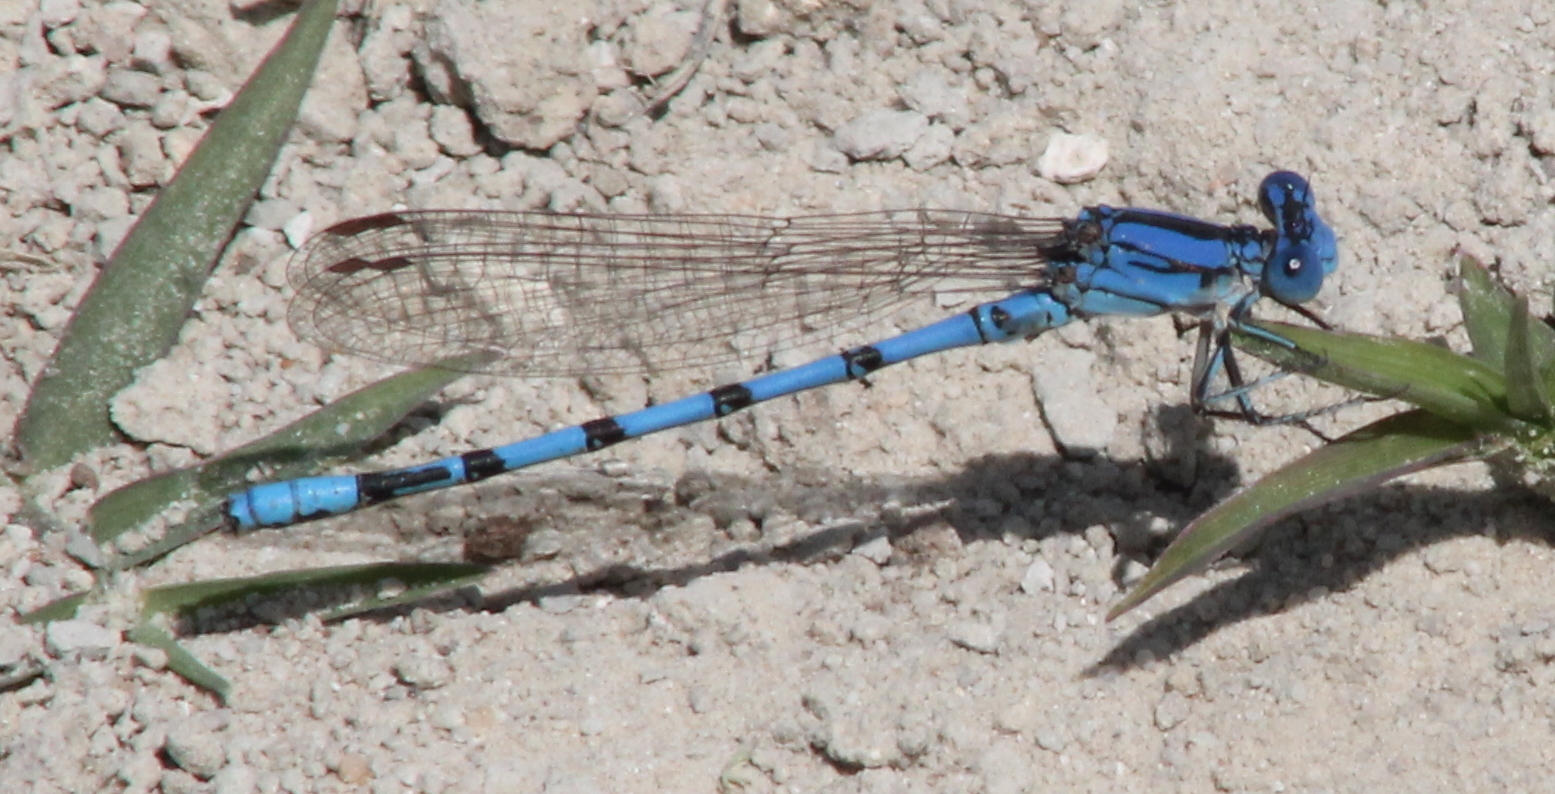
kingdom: Animalia
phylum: Arthropoda
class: Insecta
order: Odonata
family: Coenagrionidae
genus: Argia
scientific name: Argia nahuana
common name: Aztec dancer
